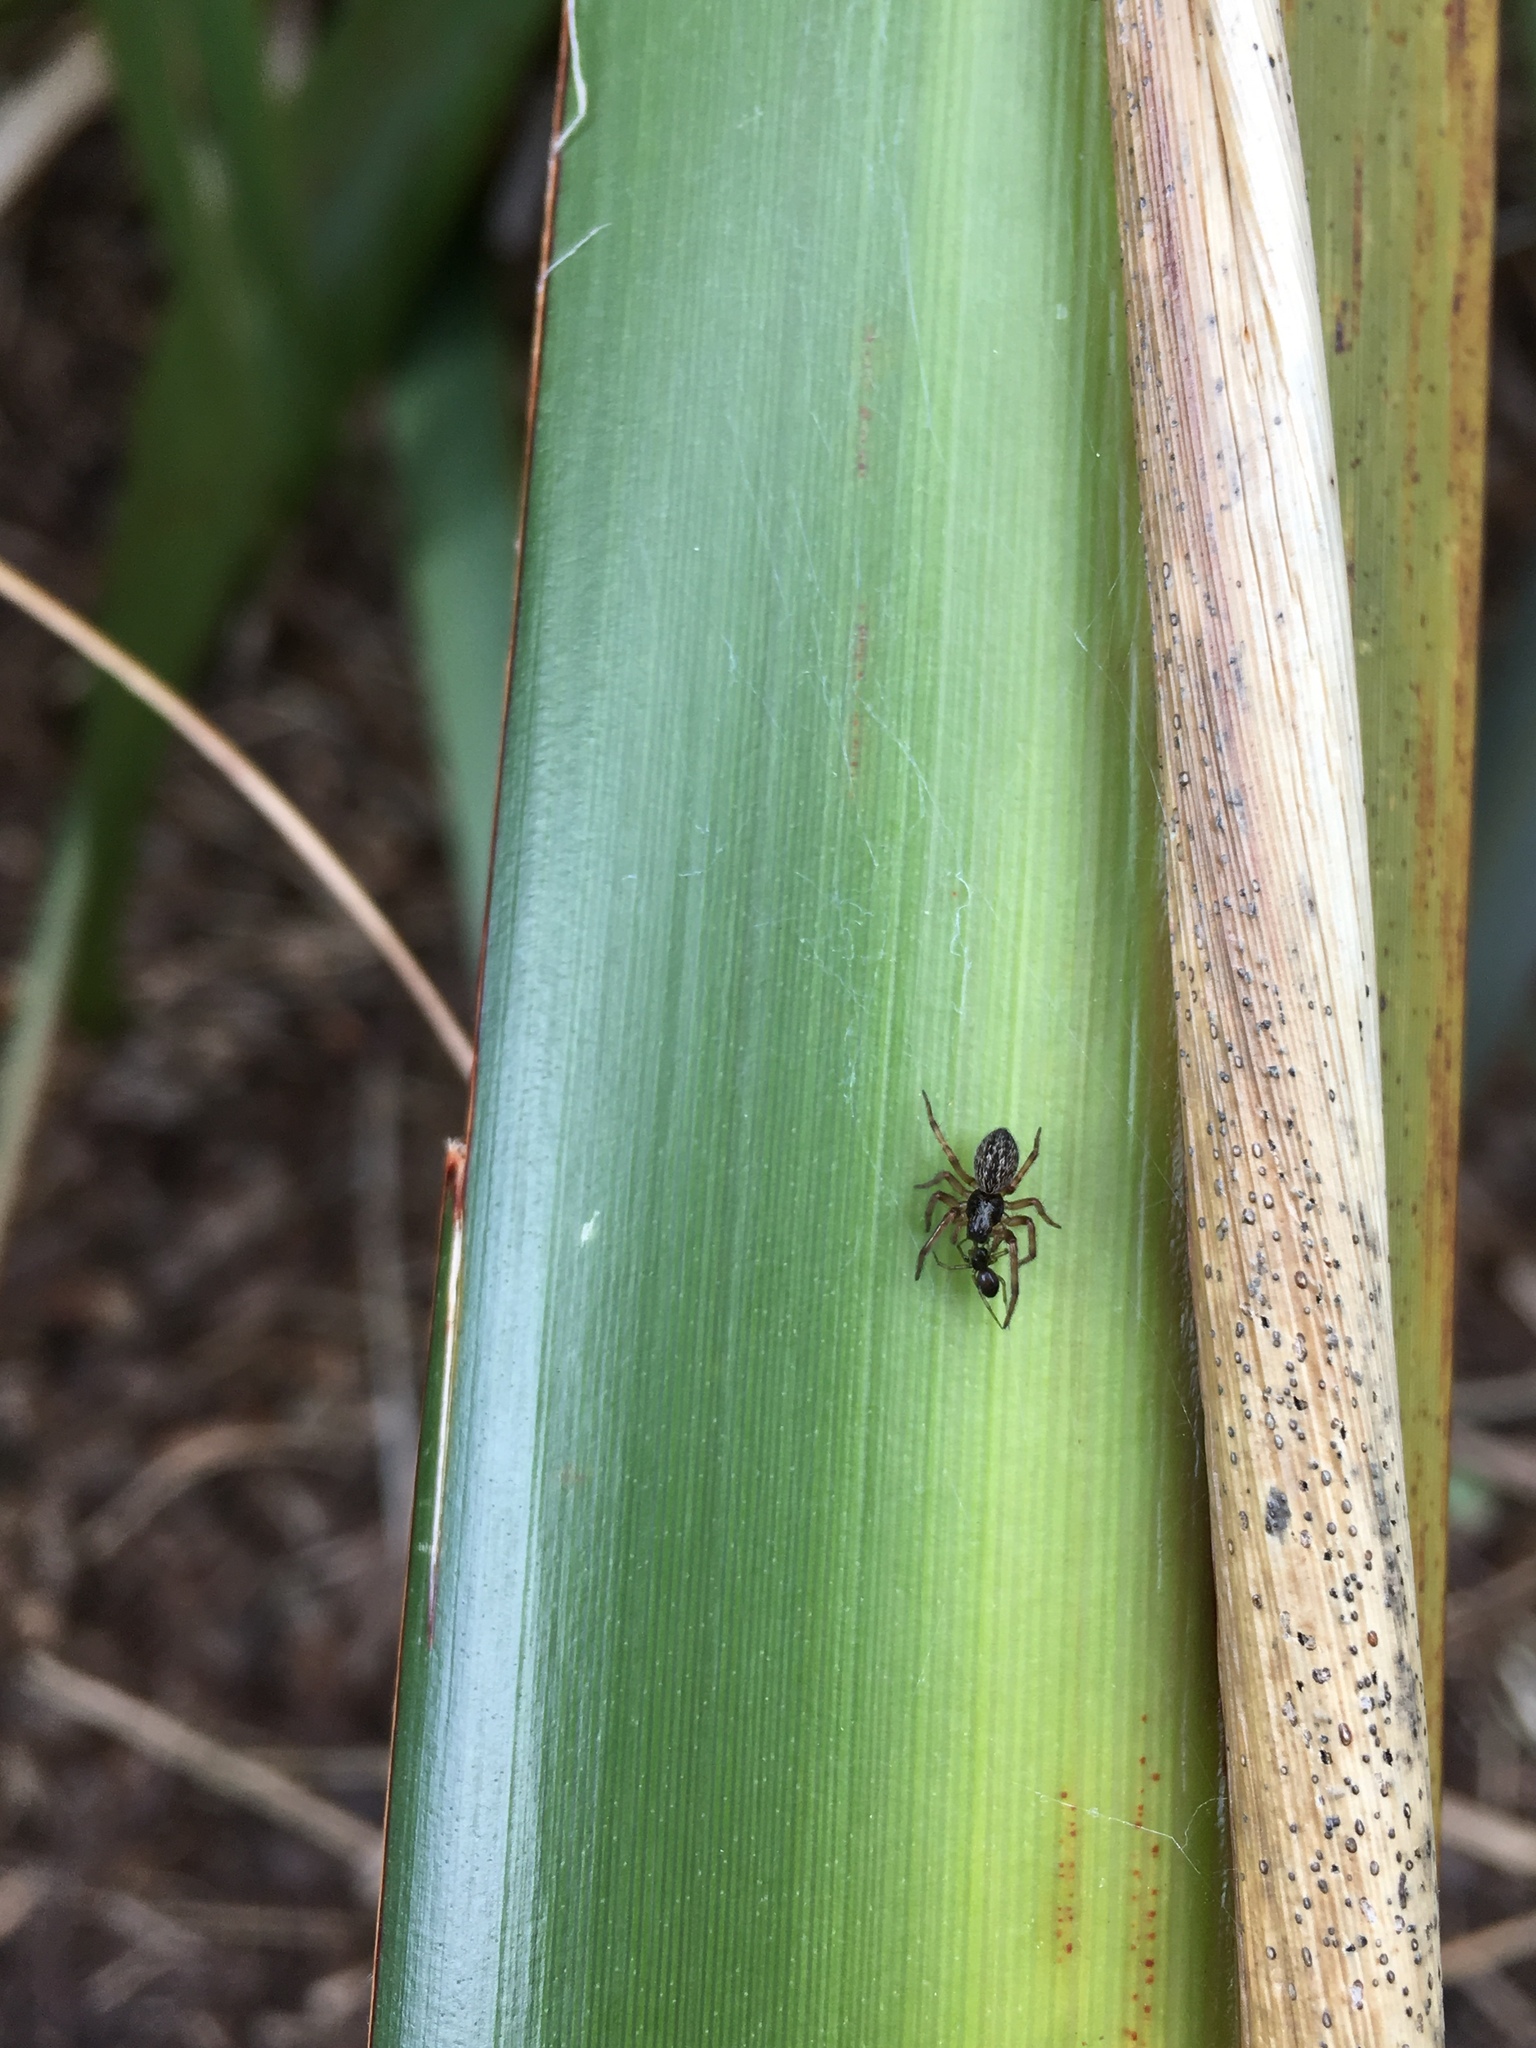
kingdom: Animalia
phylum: Arthropoda
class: Arachnida
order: Araneae
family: Desidae
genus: Badumna
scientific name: Badumna longinqua
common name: Gray house spider
